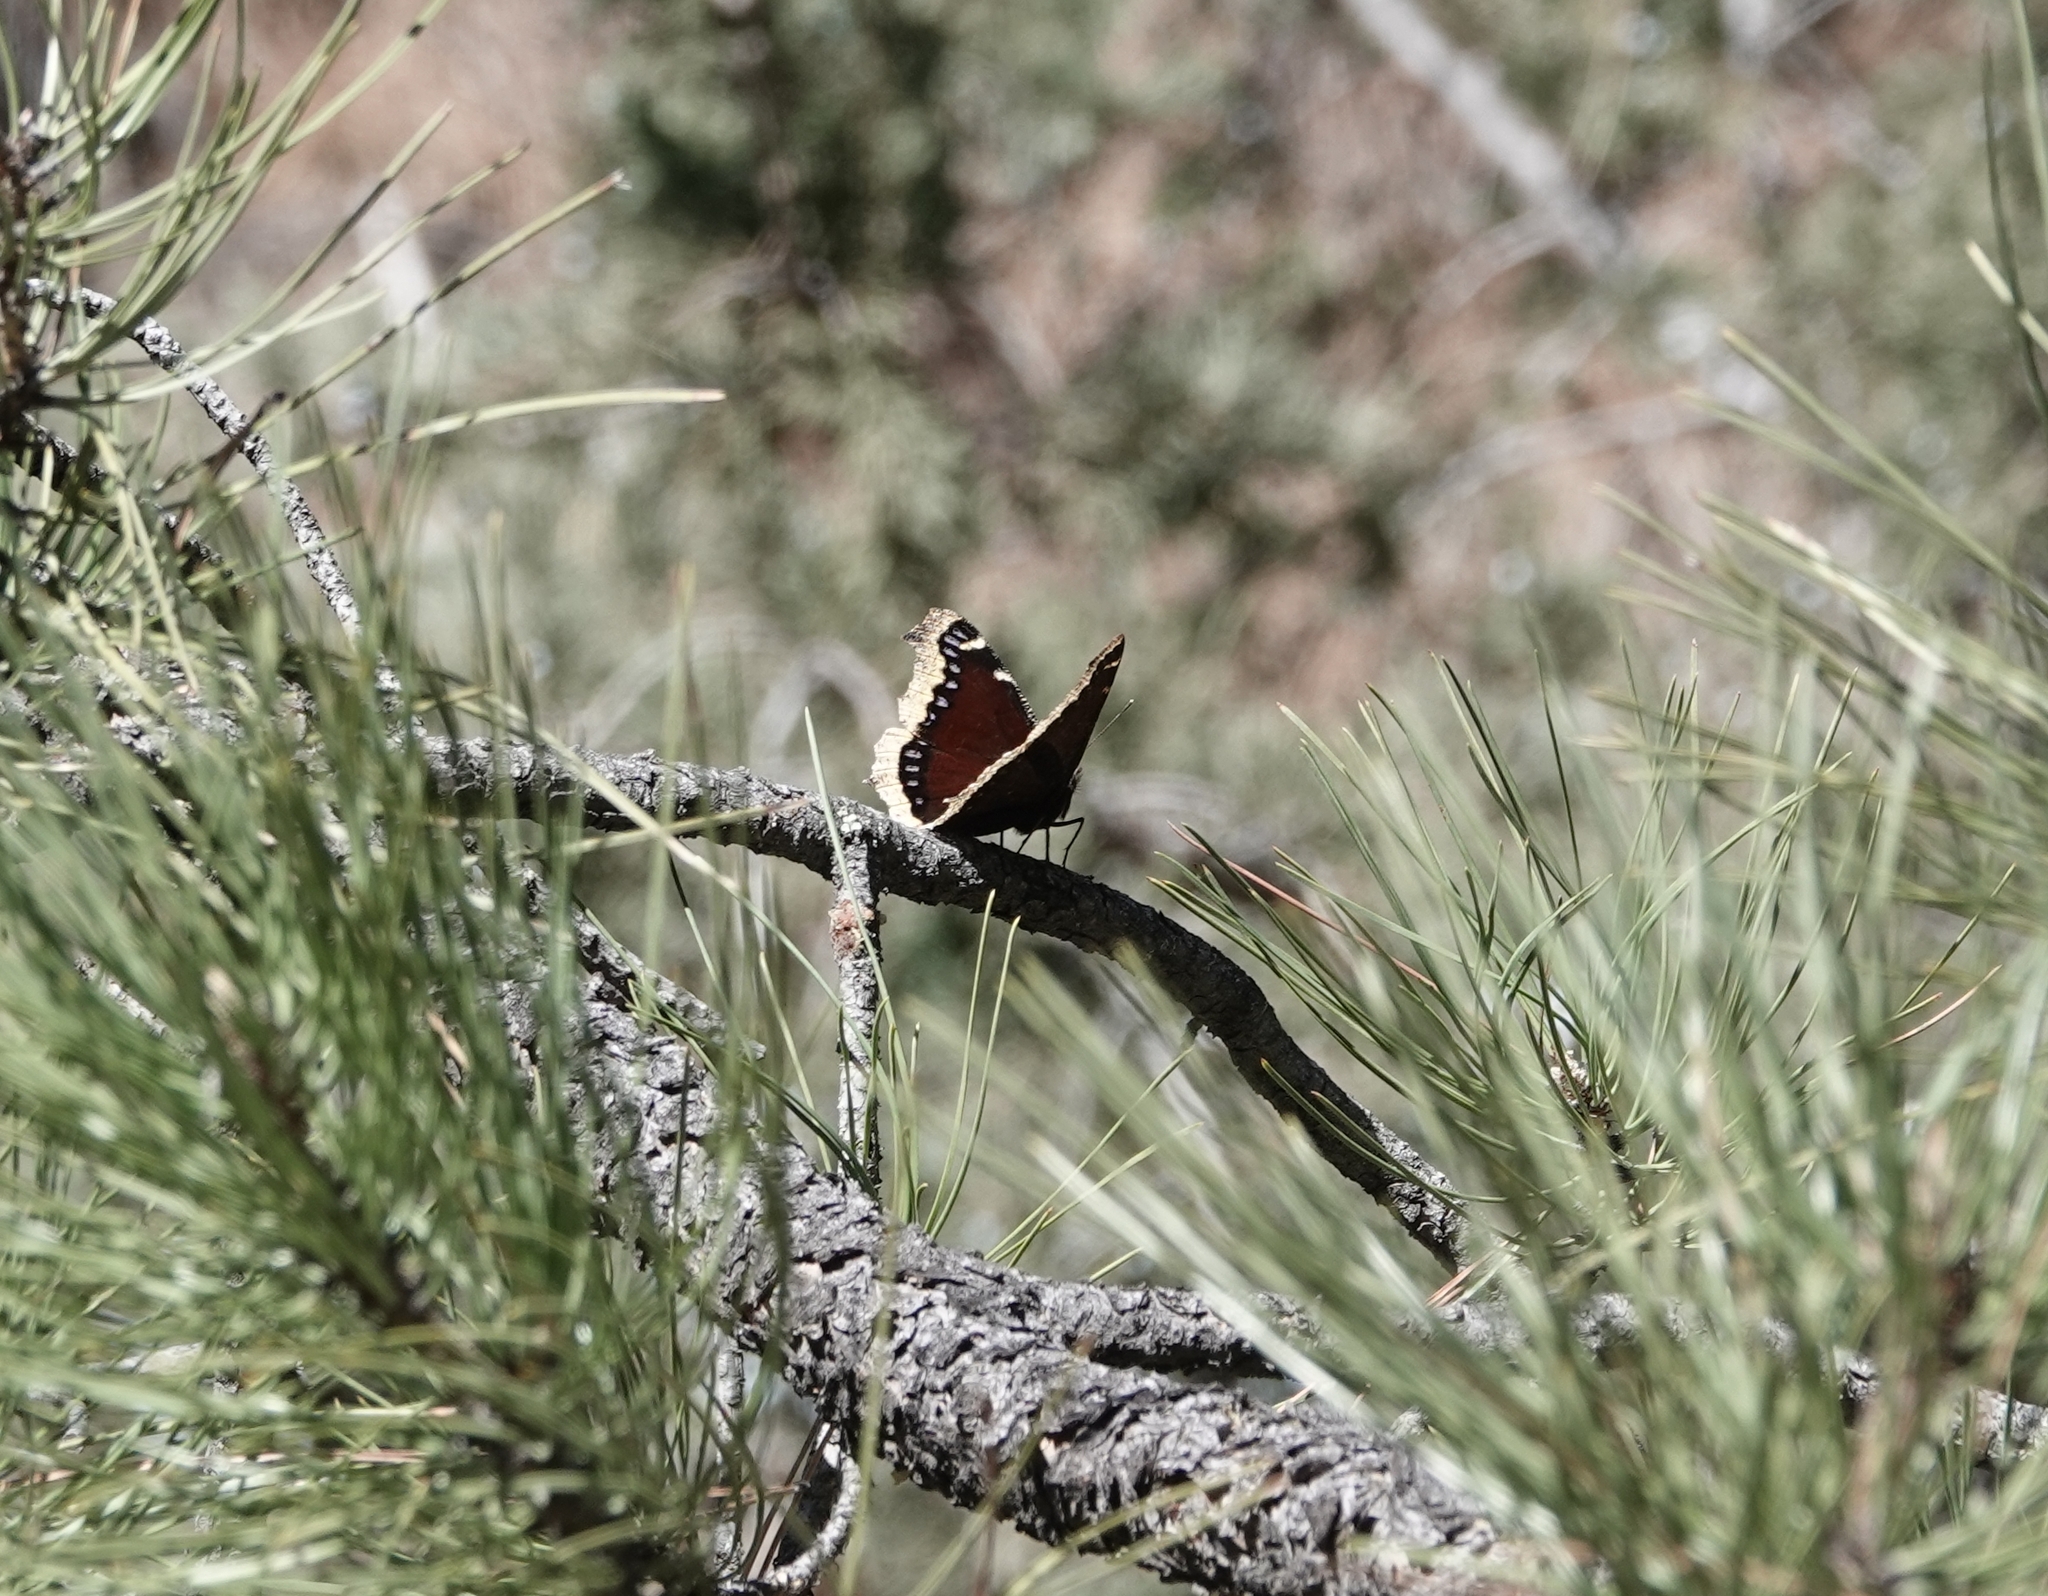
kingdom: Animalia
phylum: Arthropoda
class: Insecta
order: Lepidoptera
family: Nymphalidae
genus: Nymphalis
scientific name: Nymphalis antiopa
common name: Camberwell beauty
